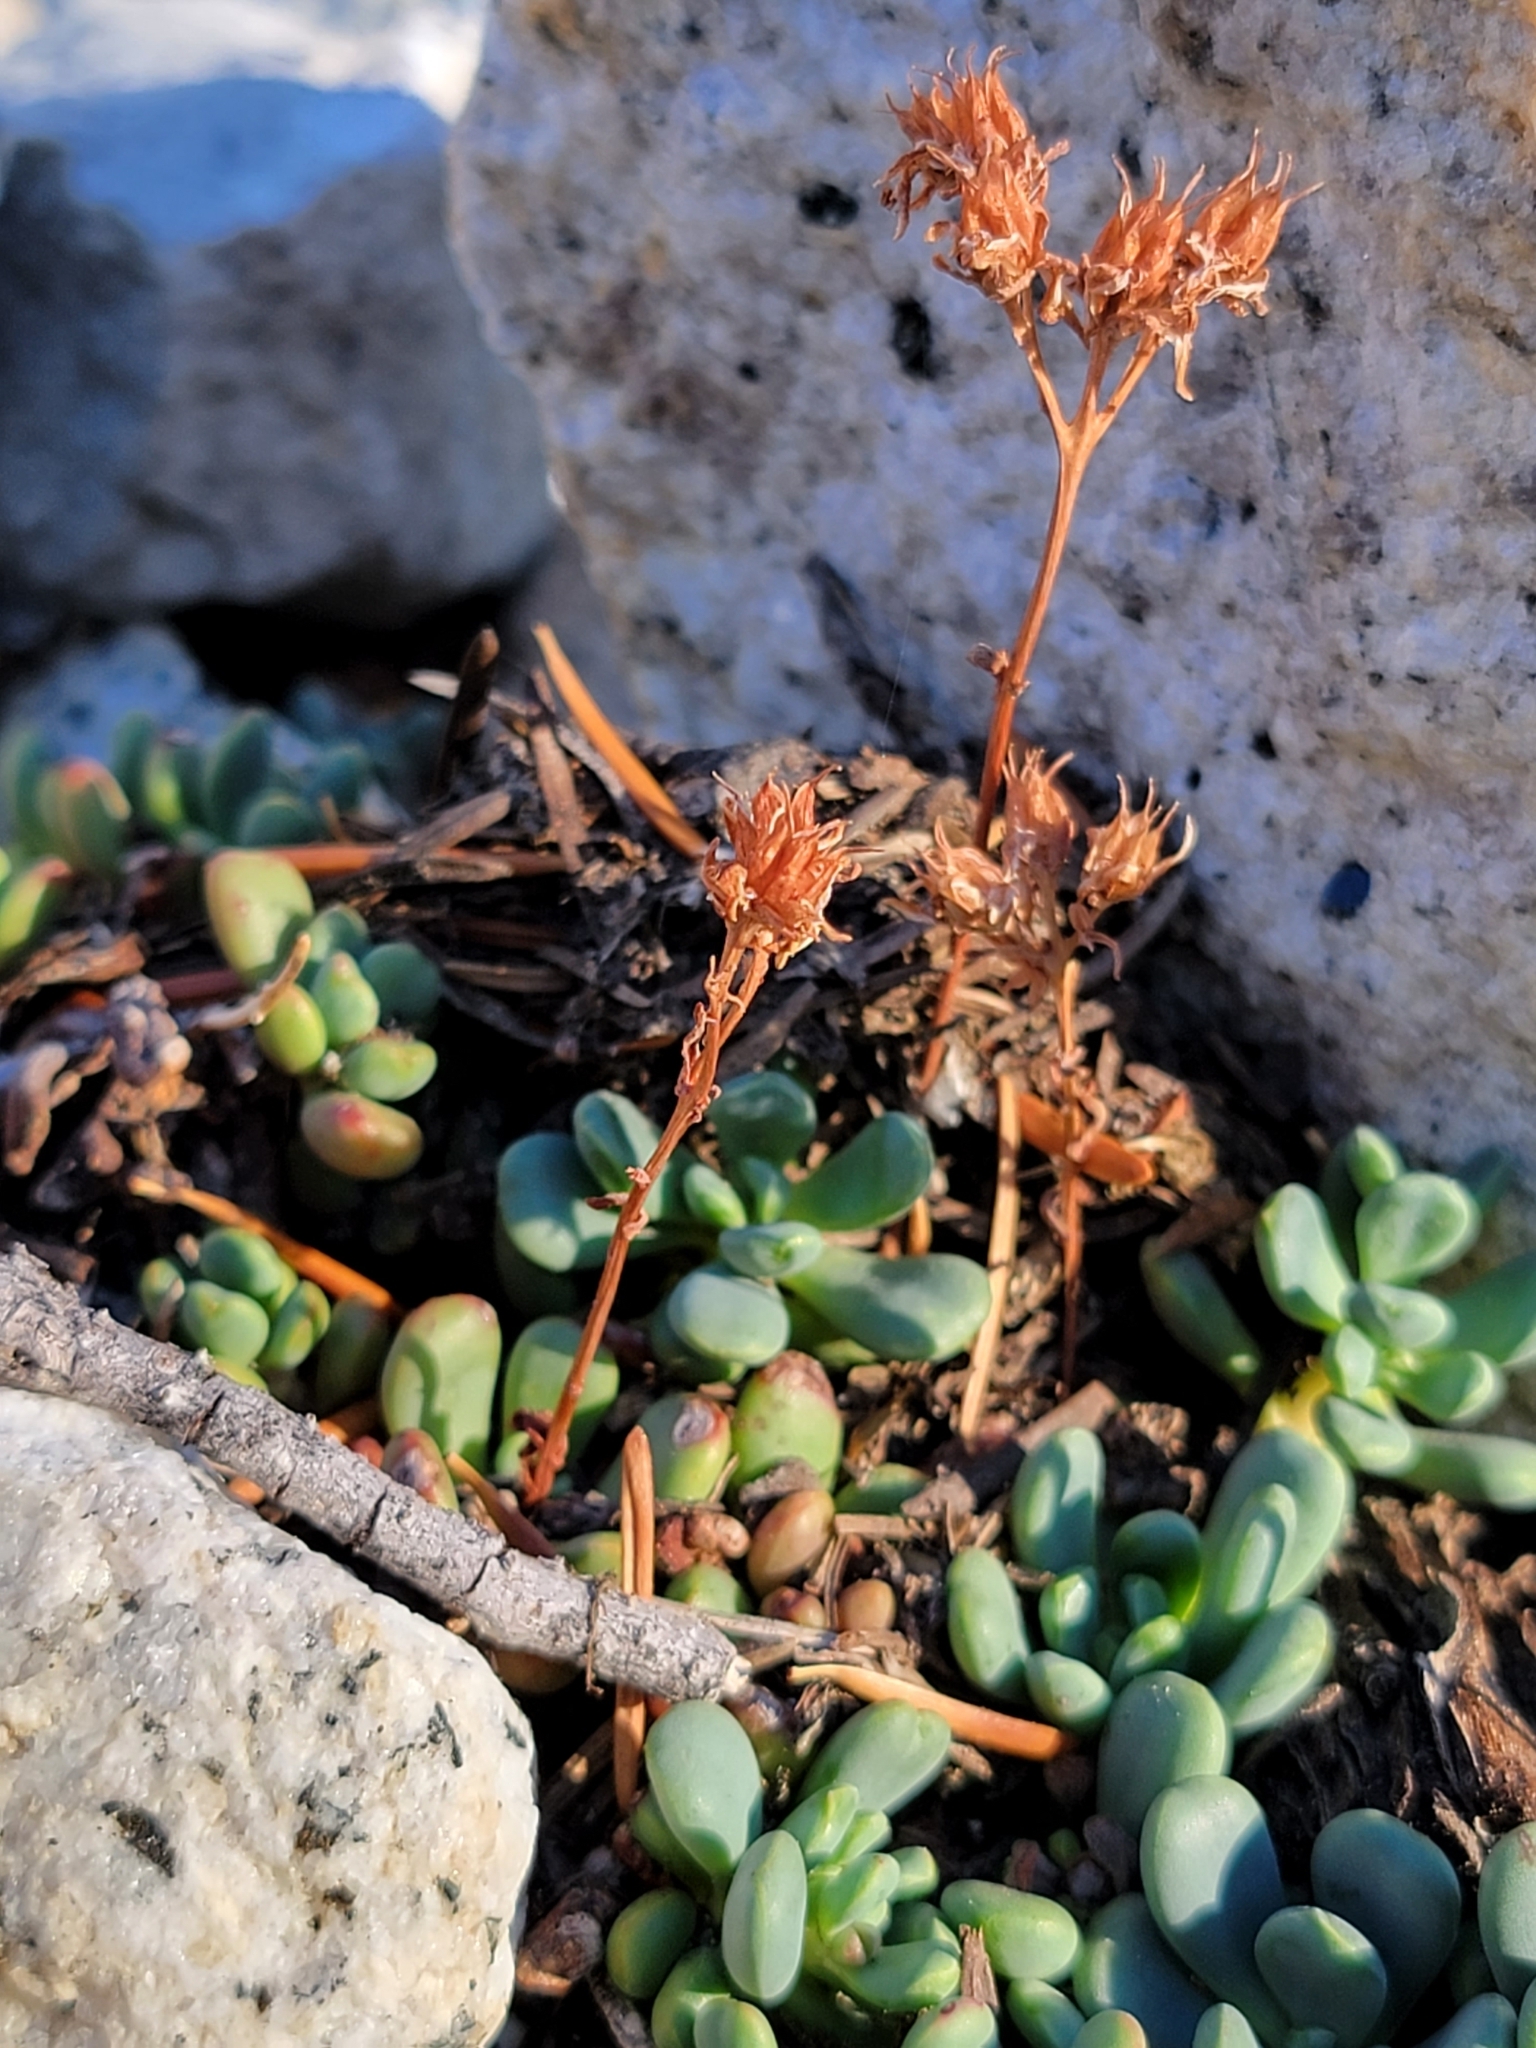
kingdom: Plantae
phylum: Tracheophyta
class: Magnoliopsida
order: Saxifragales
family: Crassulaceae
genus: Sedum
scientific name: Sedum obtusatum
